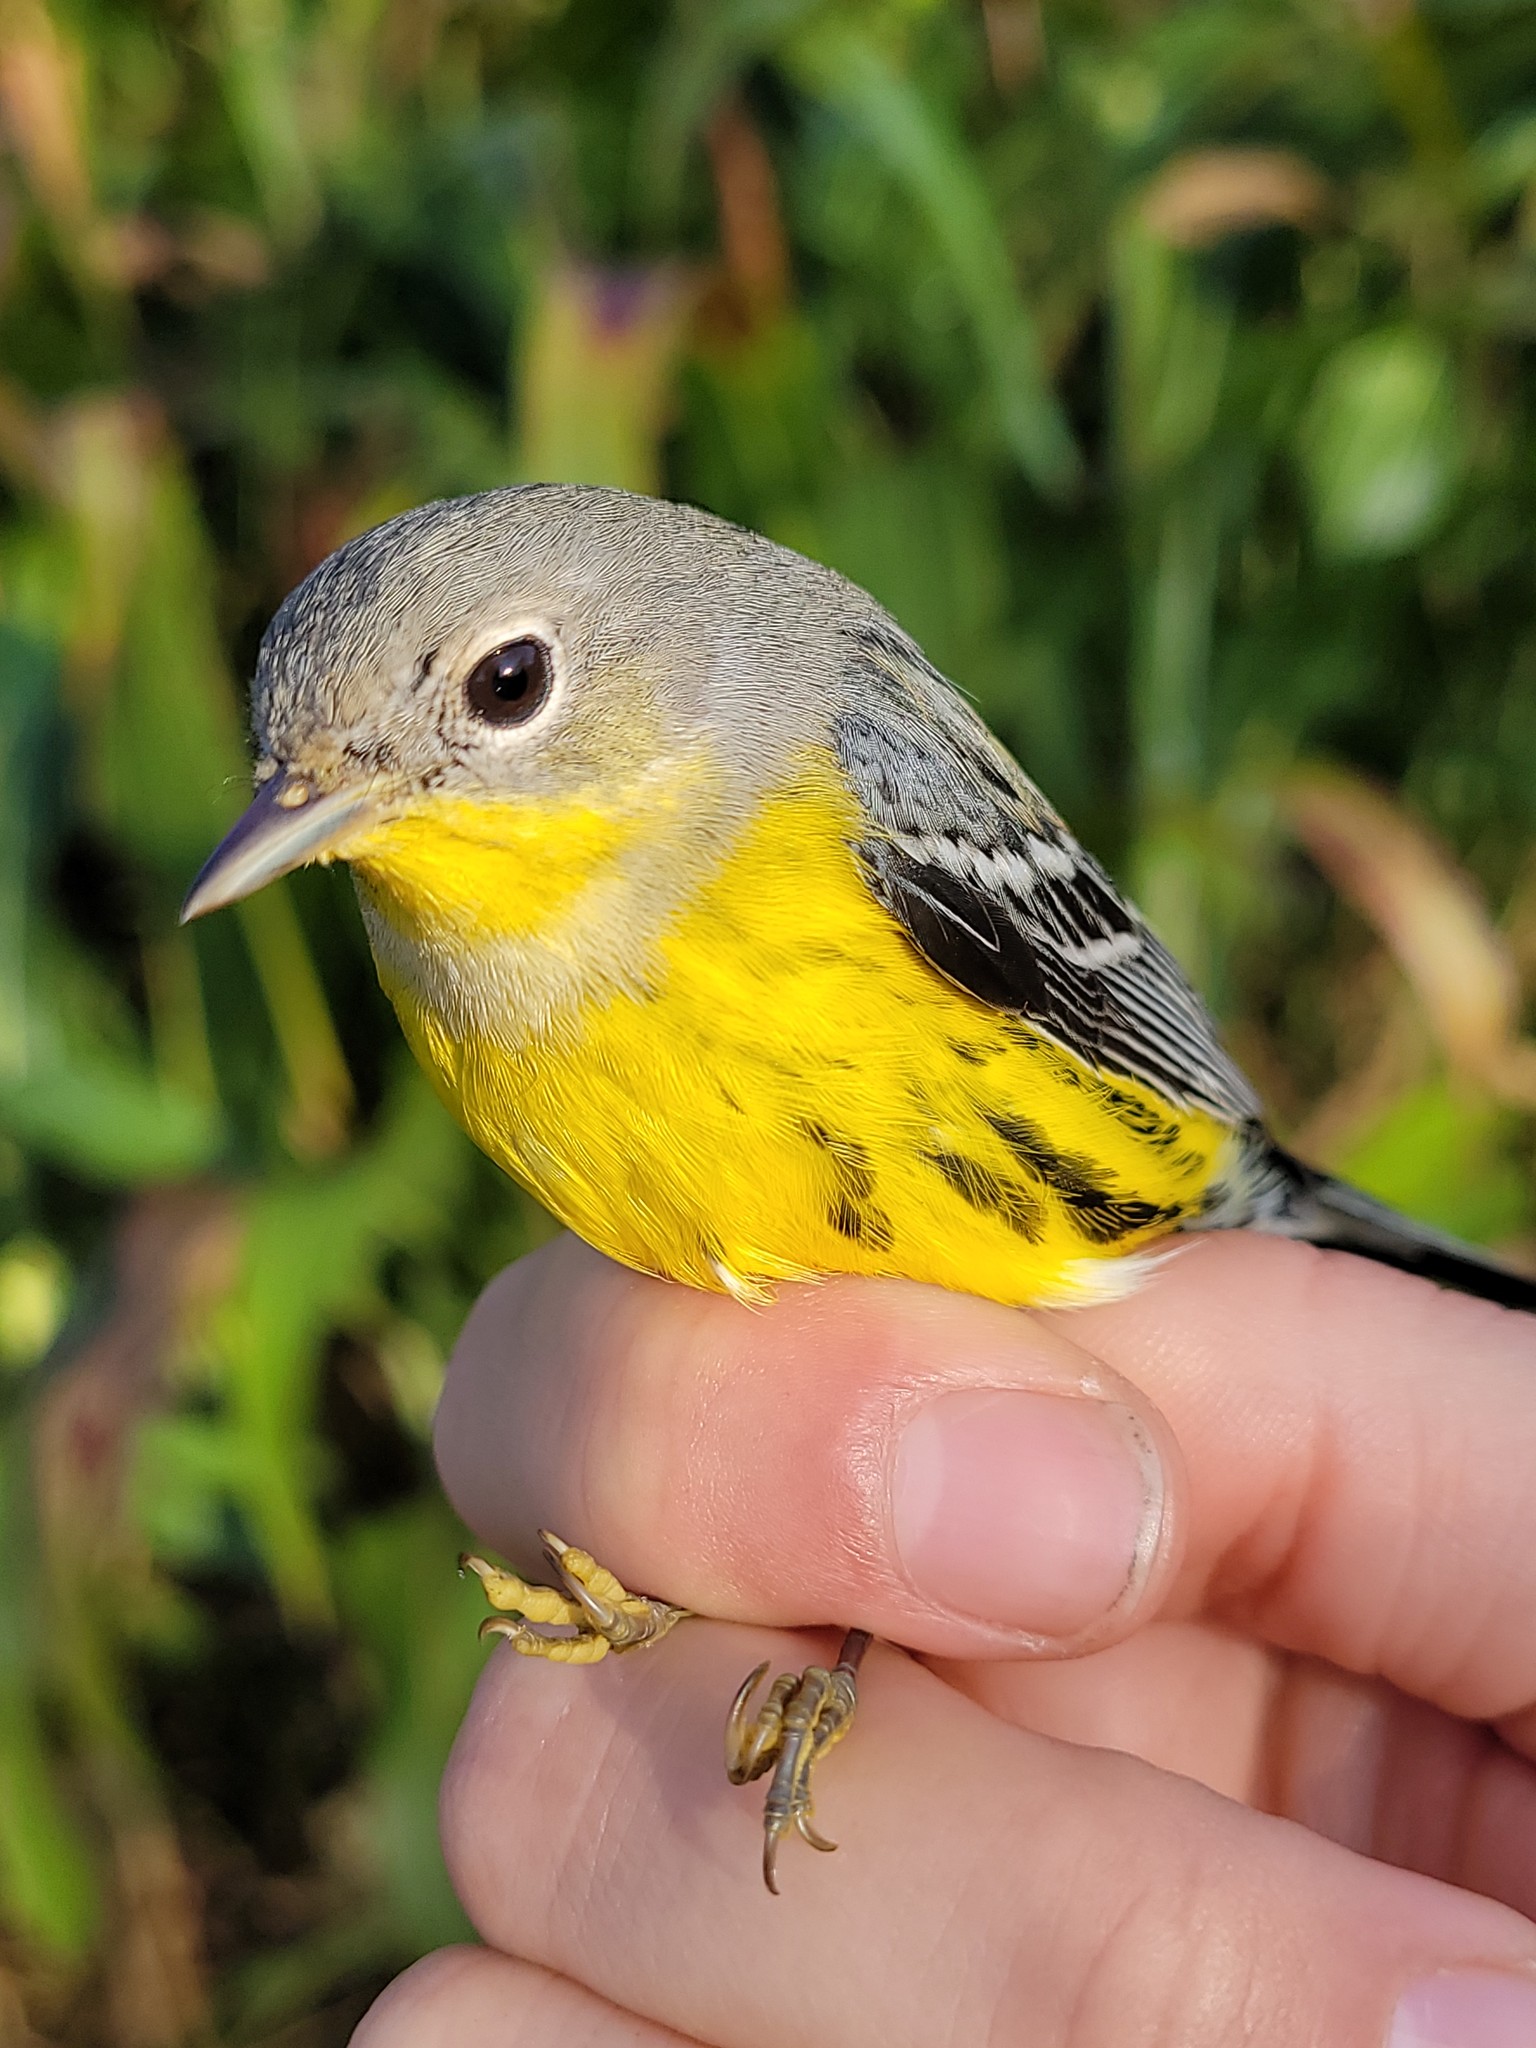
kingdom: Animalia
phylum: Chordata
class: Aves
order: Passeriformes
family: Parulidae
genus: Setophaga
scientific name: Setophaga magnolia
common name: Magnolia warbler
